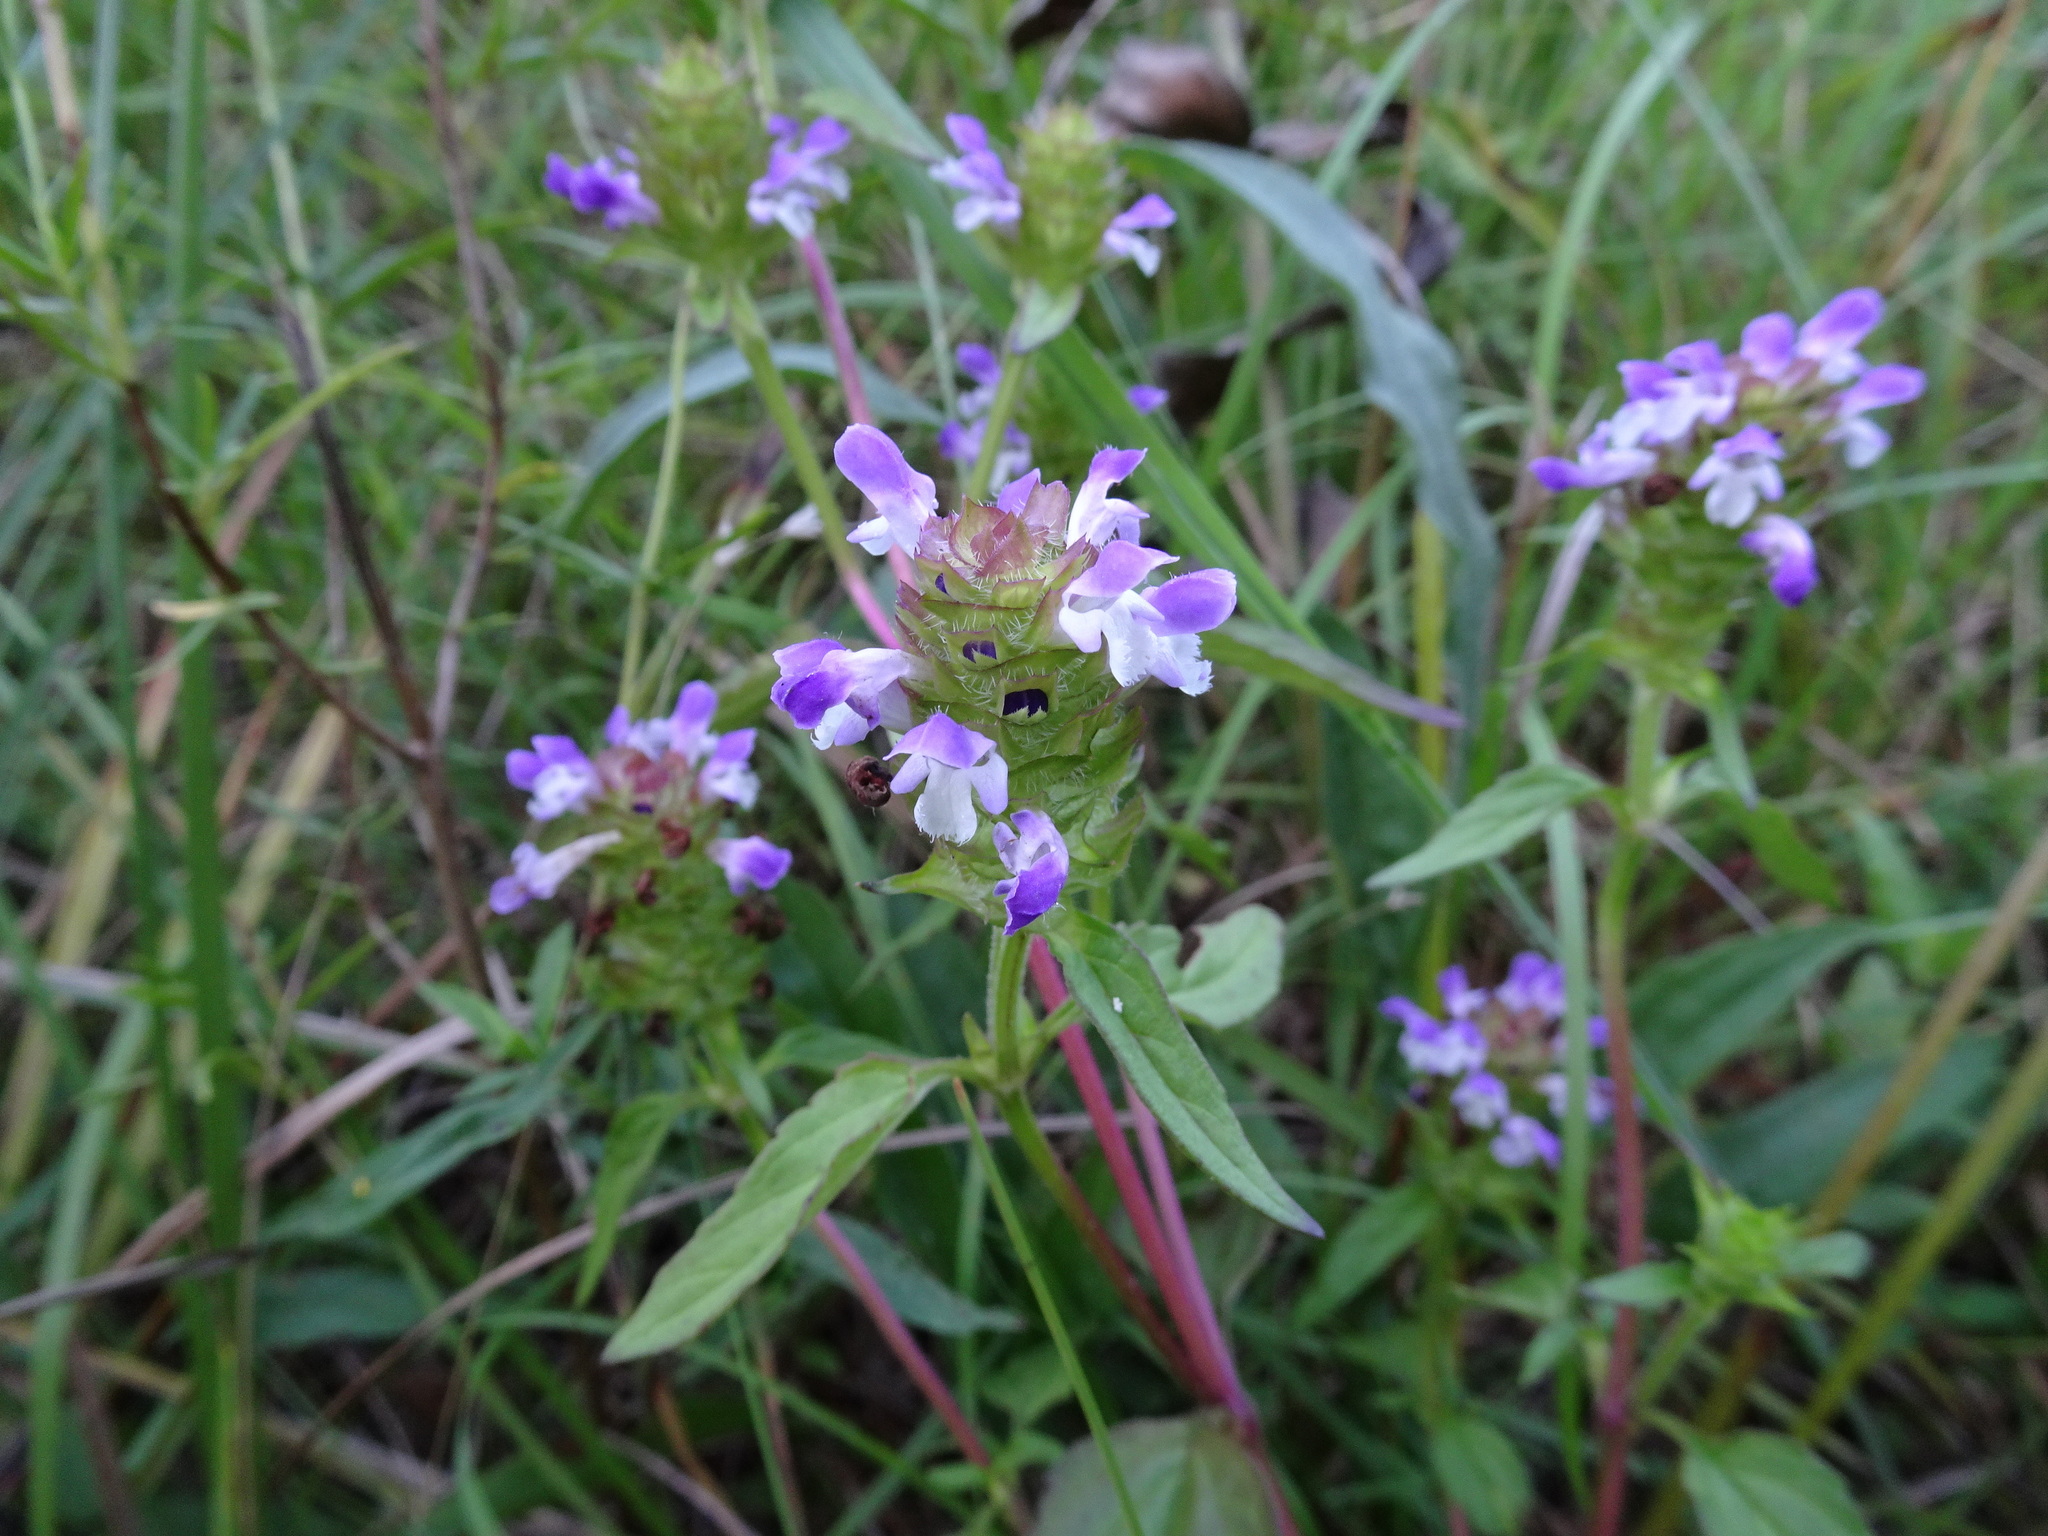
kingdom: Plantae
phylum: Tracheophyta
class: Magnoliopsida
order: Lamiales
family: Lamiaceae
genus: Prunella
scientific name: Prunella vulgaris
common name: Heal-all
